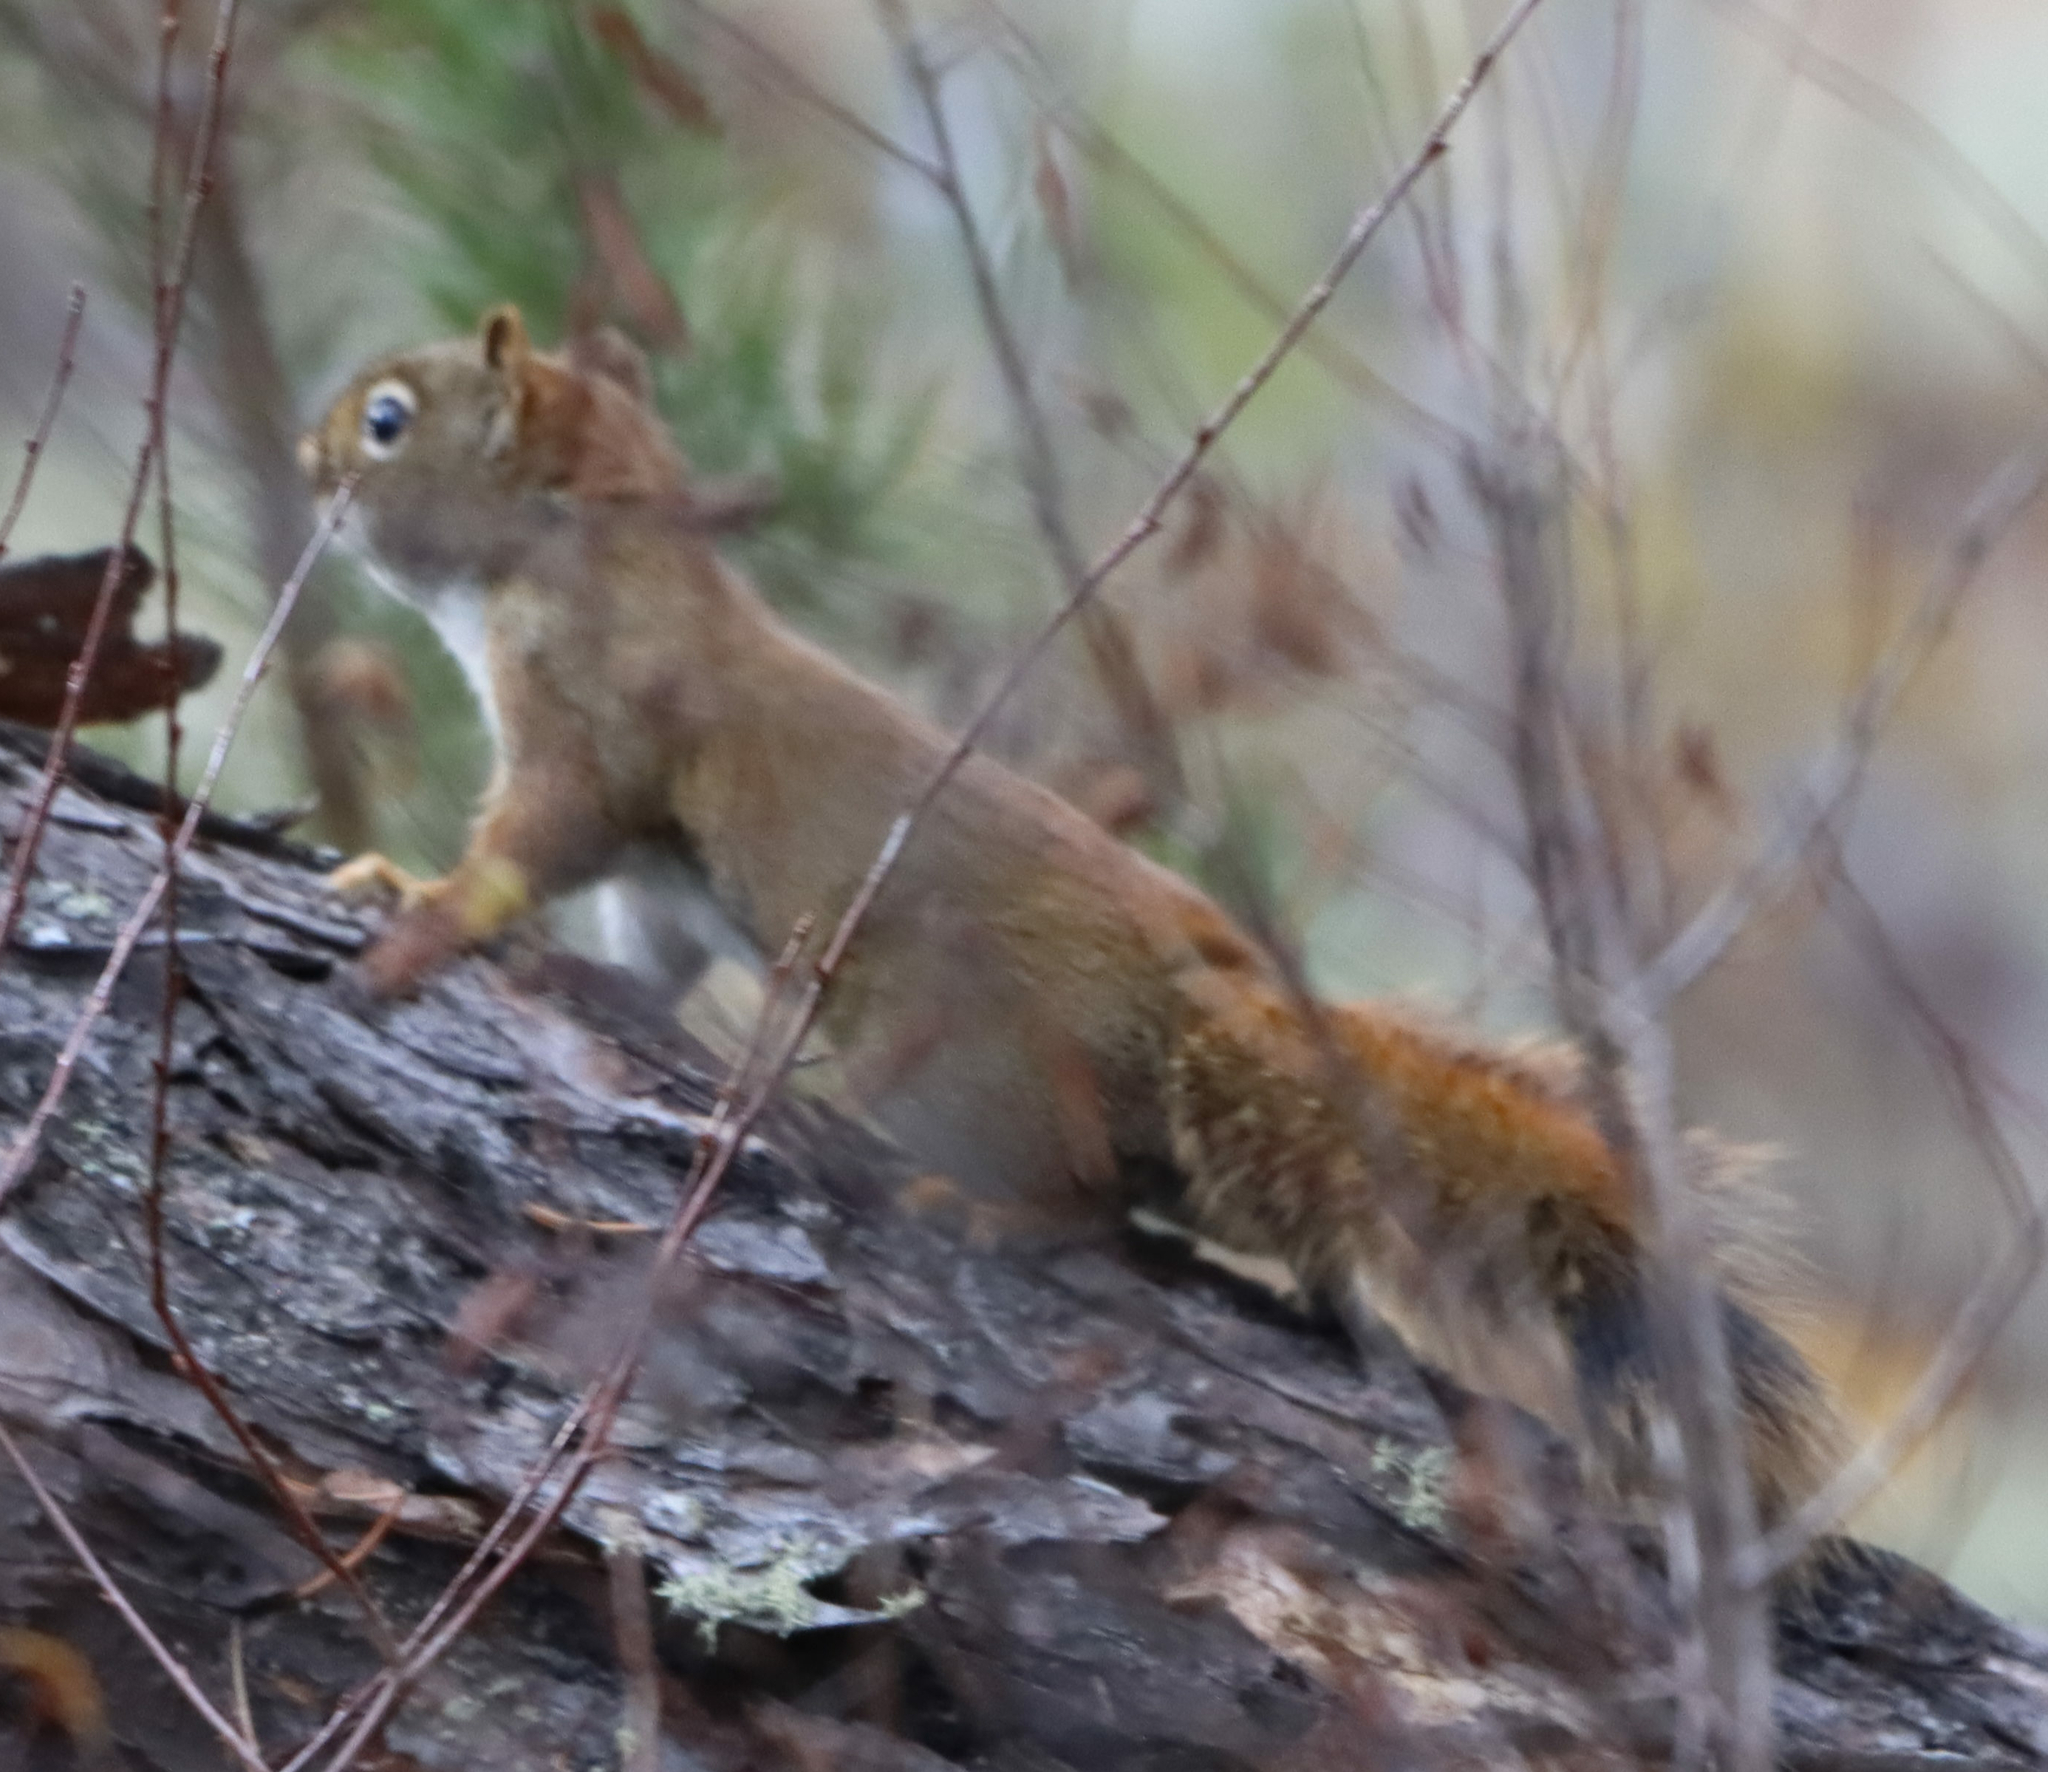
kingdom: Animalia
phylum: Chordata
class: Mammalia
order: Rodentia
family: Sciuridae
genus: Tamiasciurus
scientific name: Tamiasciurus hudsonicus
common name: Red squirrel
